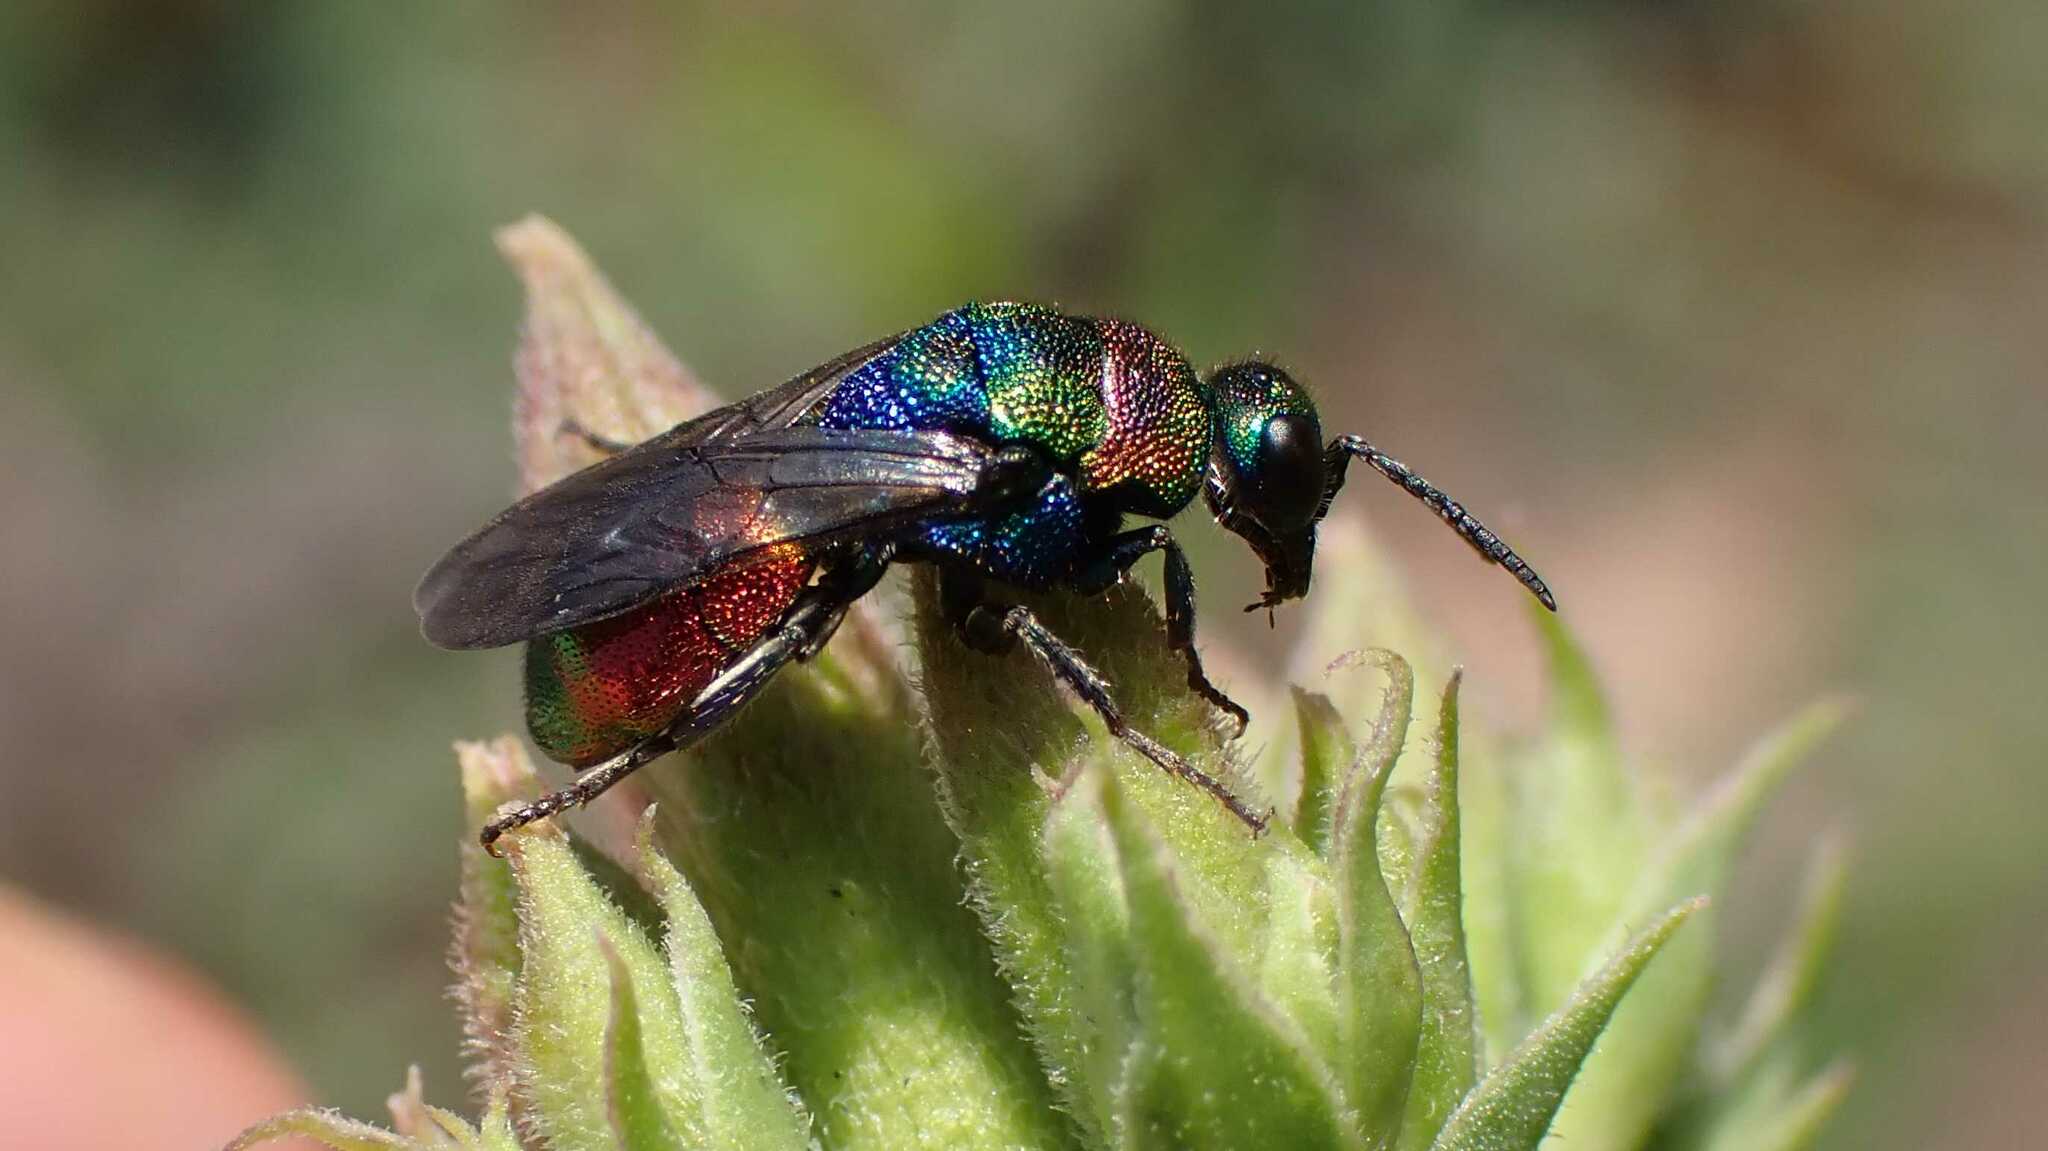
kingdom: Animalia
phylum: Arthropoda
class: Insecta
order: Hymenoptera
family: Chrysididae
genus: Hedychrum
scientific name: Hedychrum rutilans
